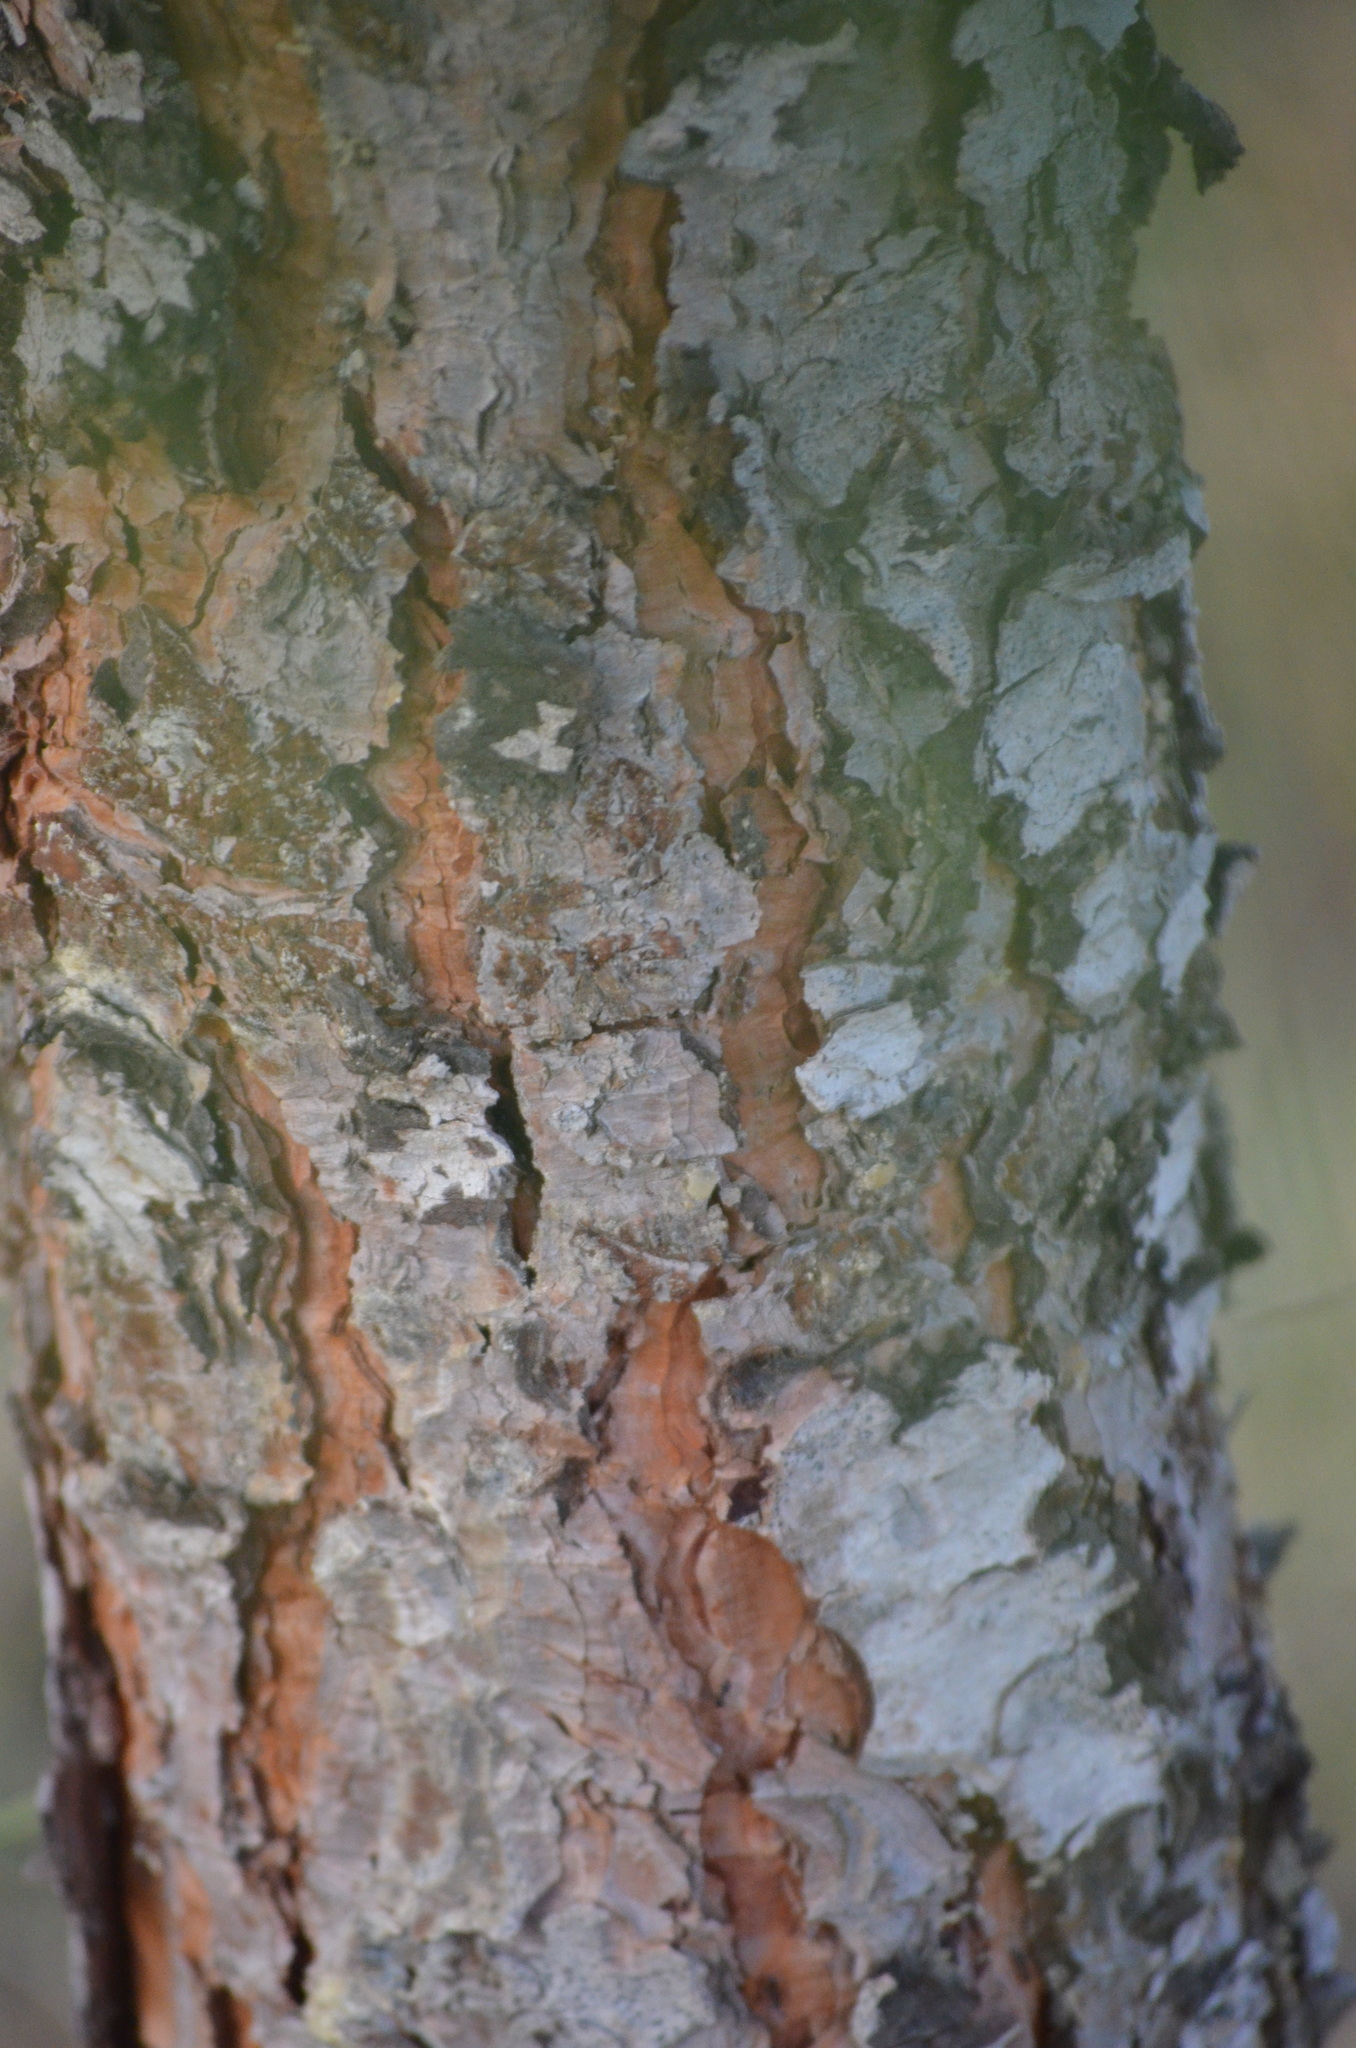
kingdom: Plantae
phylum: Tracheophyta
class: Pinopsida
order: Pinales
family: Pinaceae
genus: Pinus
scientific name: Pinus pinea
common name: Italian stone pine
